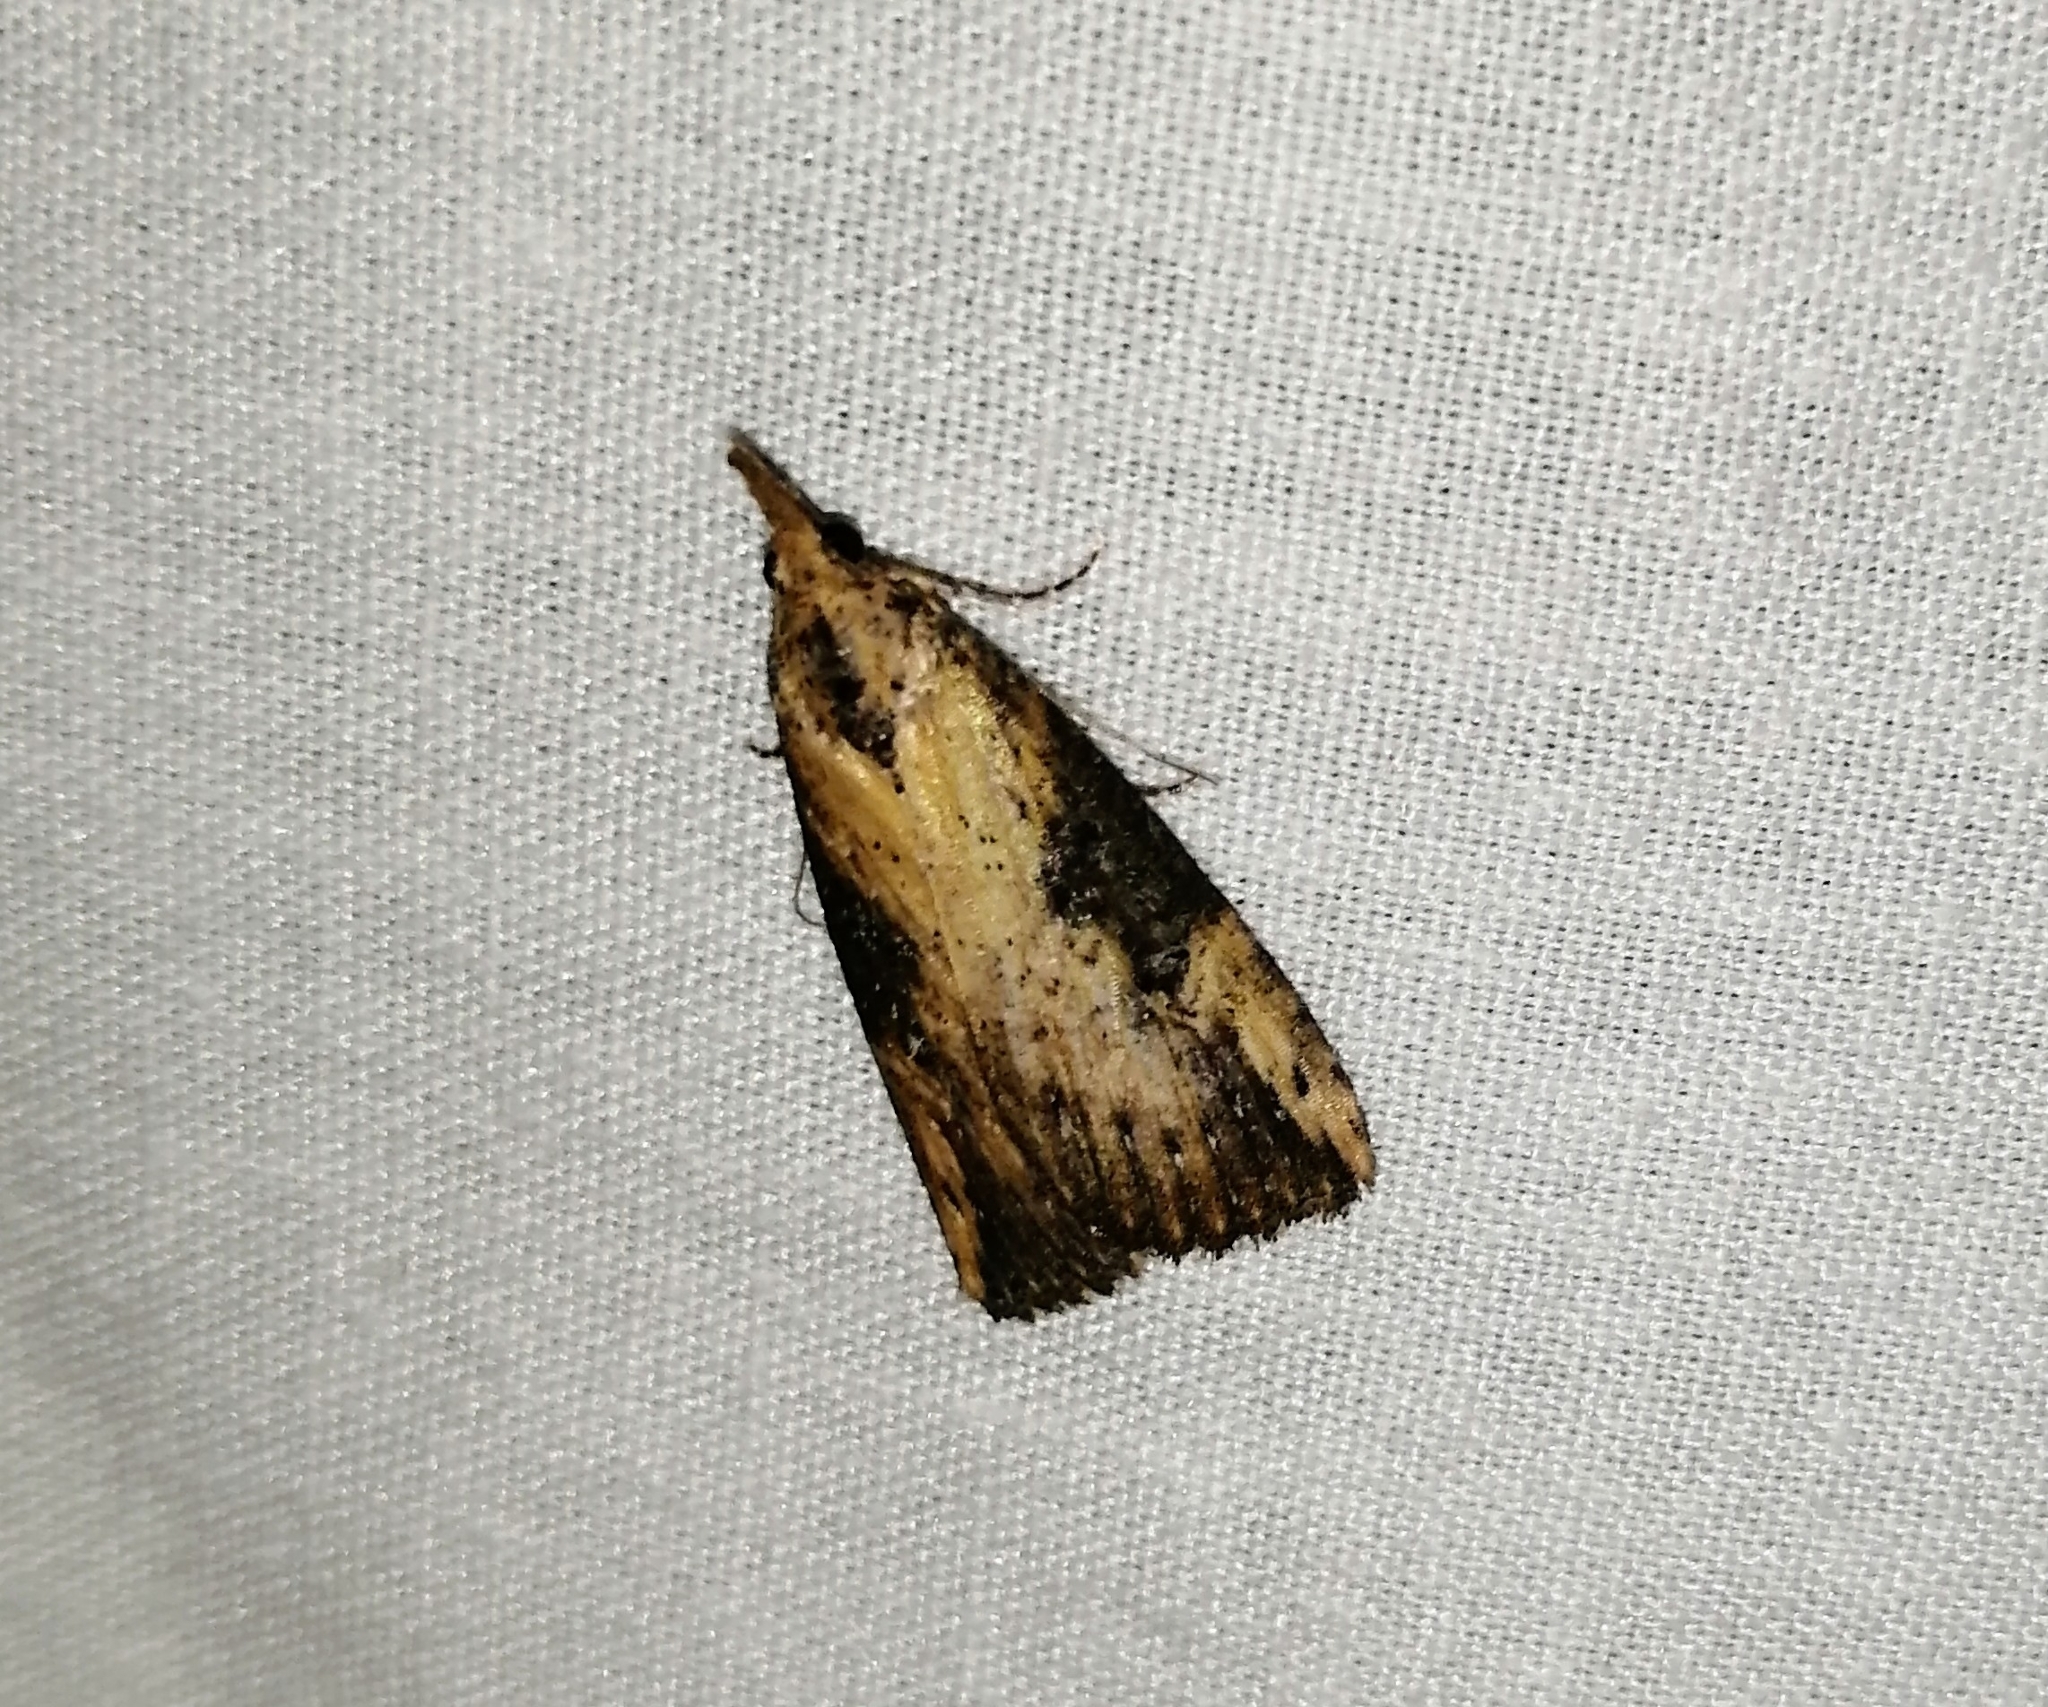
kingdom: Animalia
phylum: Arthropoda
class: Insecta
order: Lepidoptera
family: Erebidae
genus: Hypena
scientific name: Hypena humuli
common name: Hop vine snout
